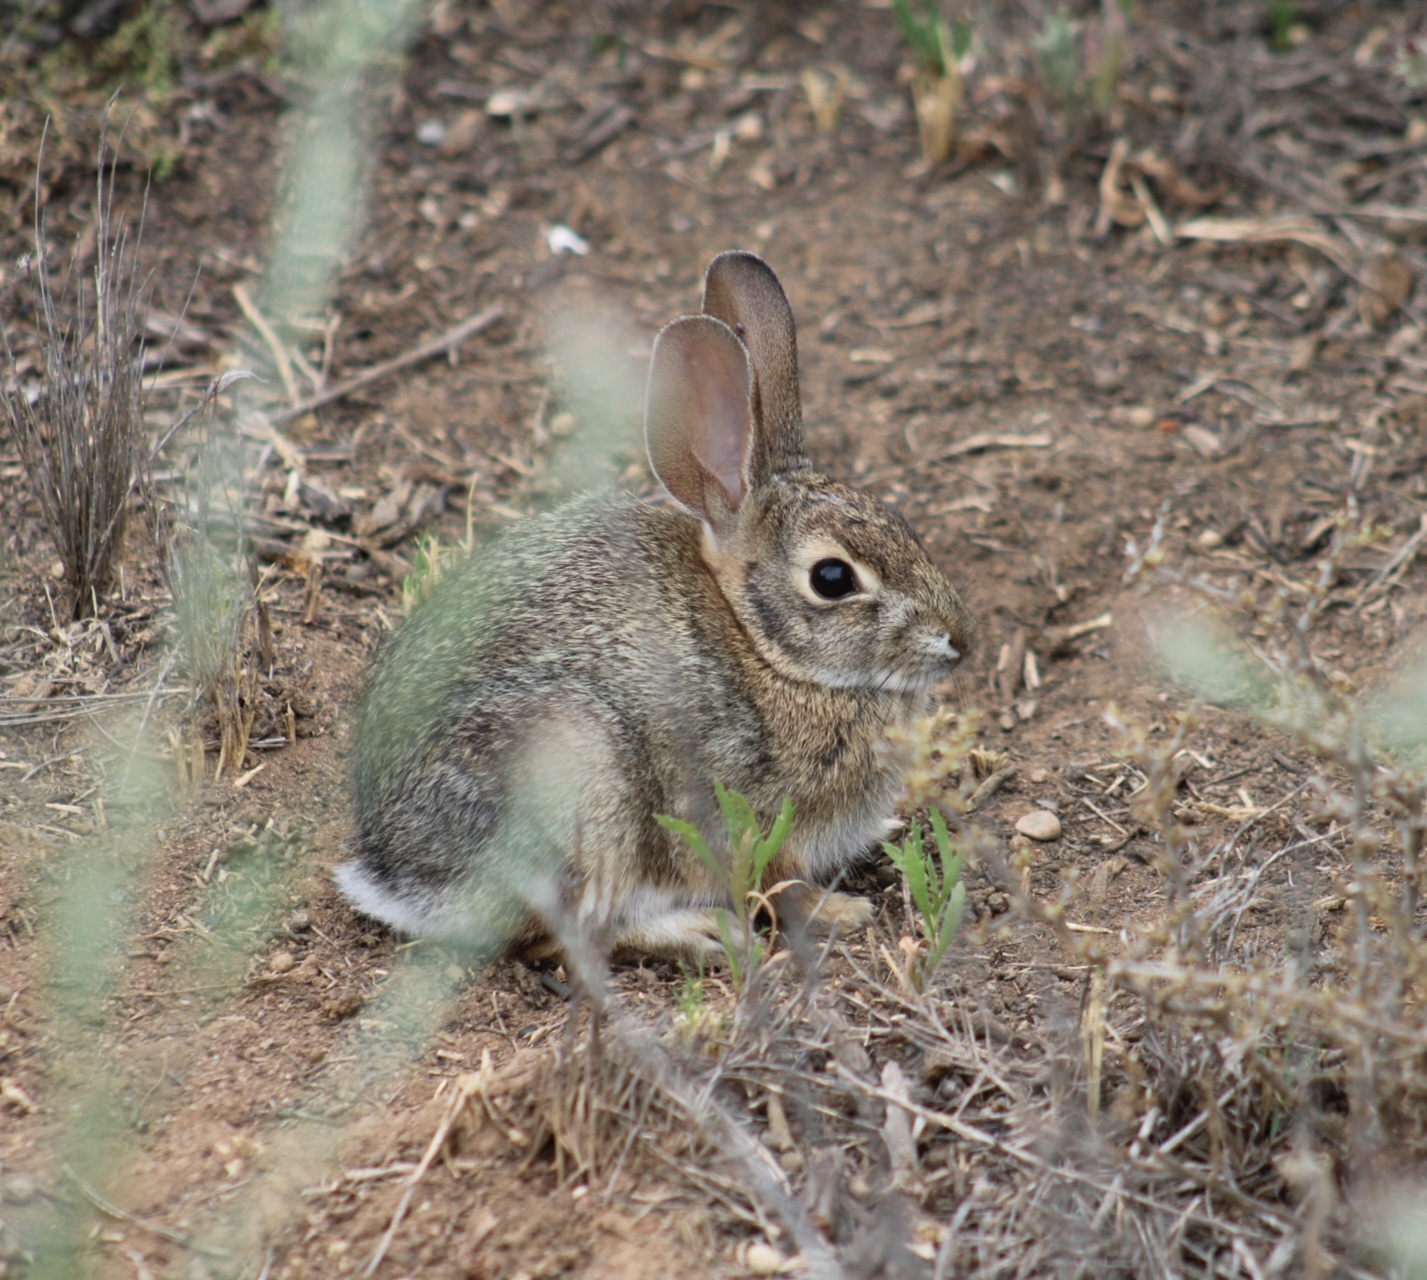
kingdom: Animalia
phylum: Chordata
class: Mammalia
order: Lagomorpha
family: Leporidae
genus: Sylvilagus
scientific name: Sylvilagus audubonii
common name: Desert cottontail
